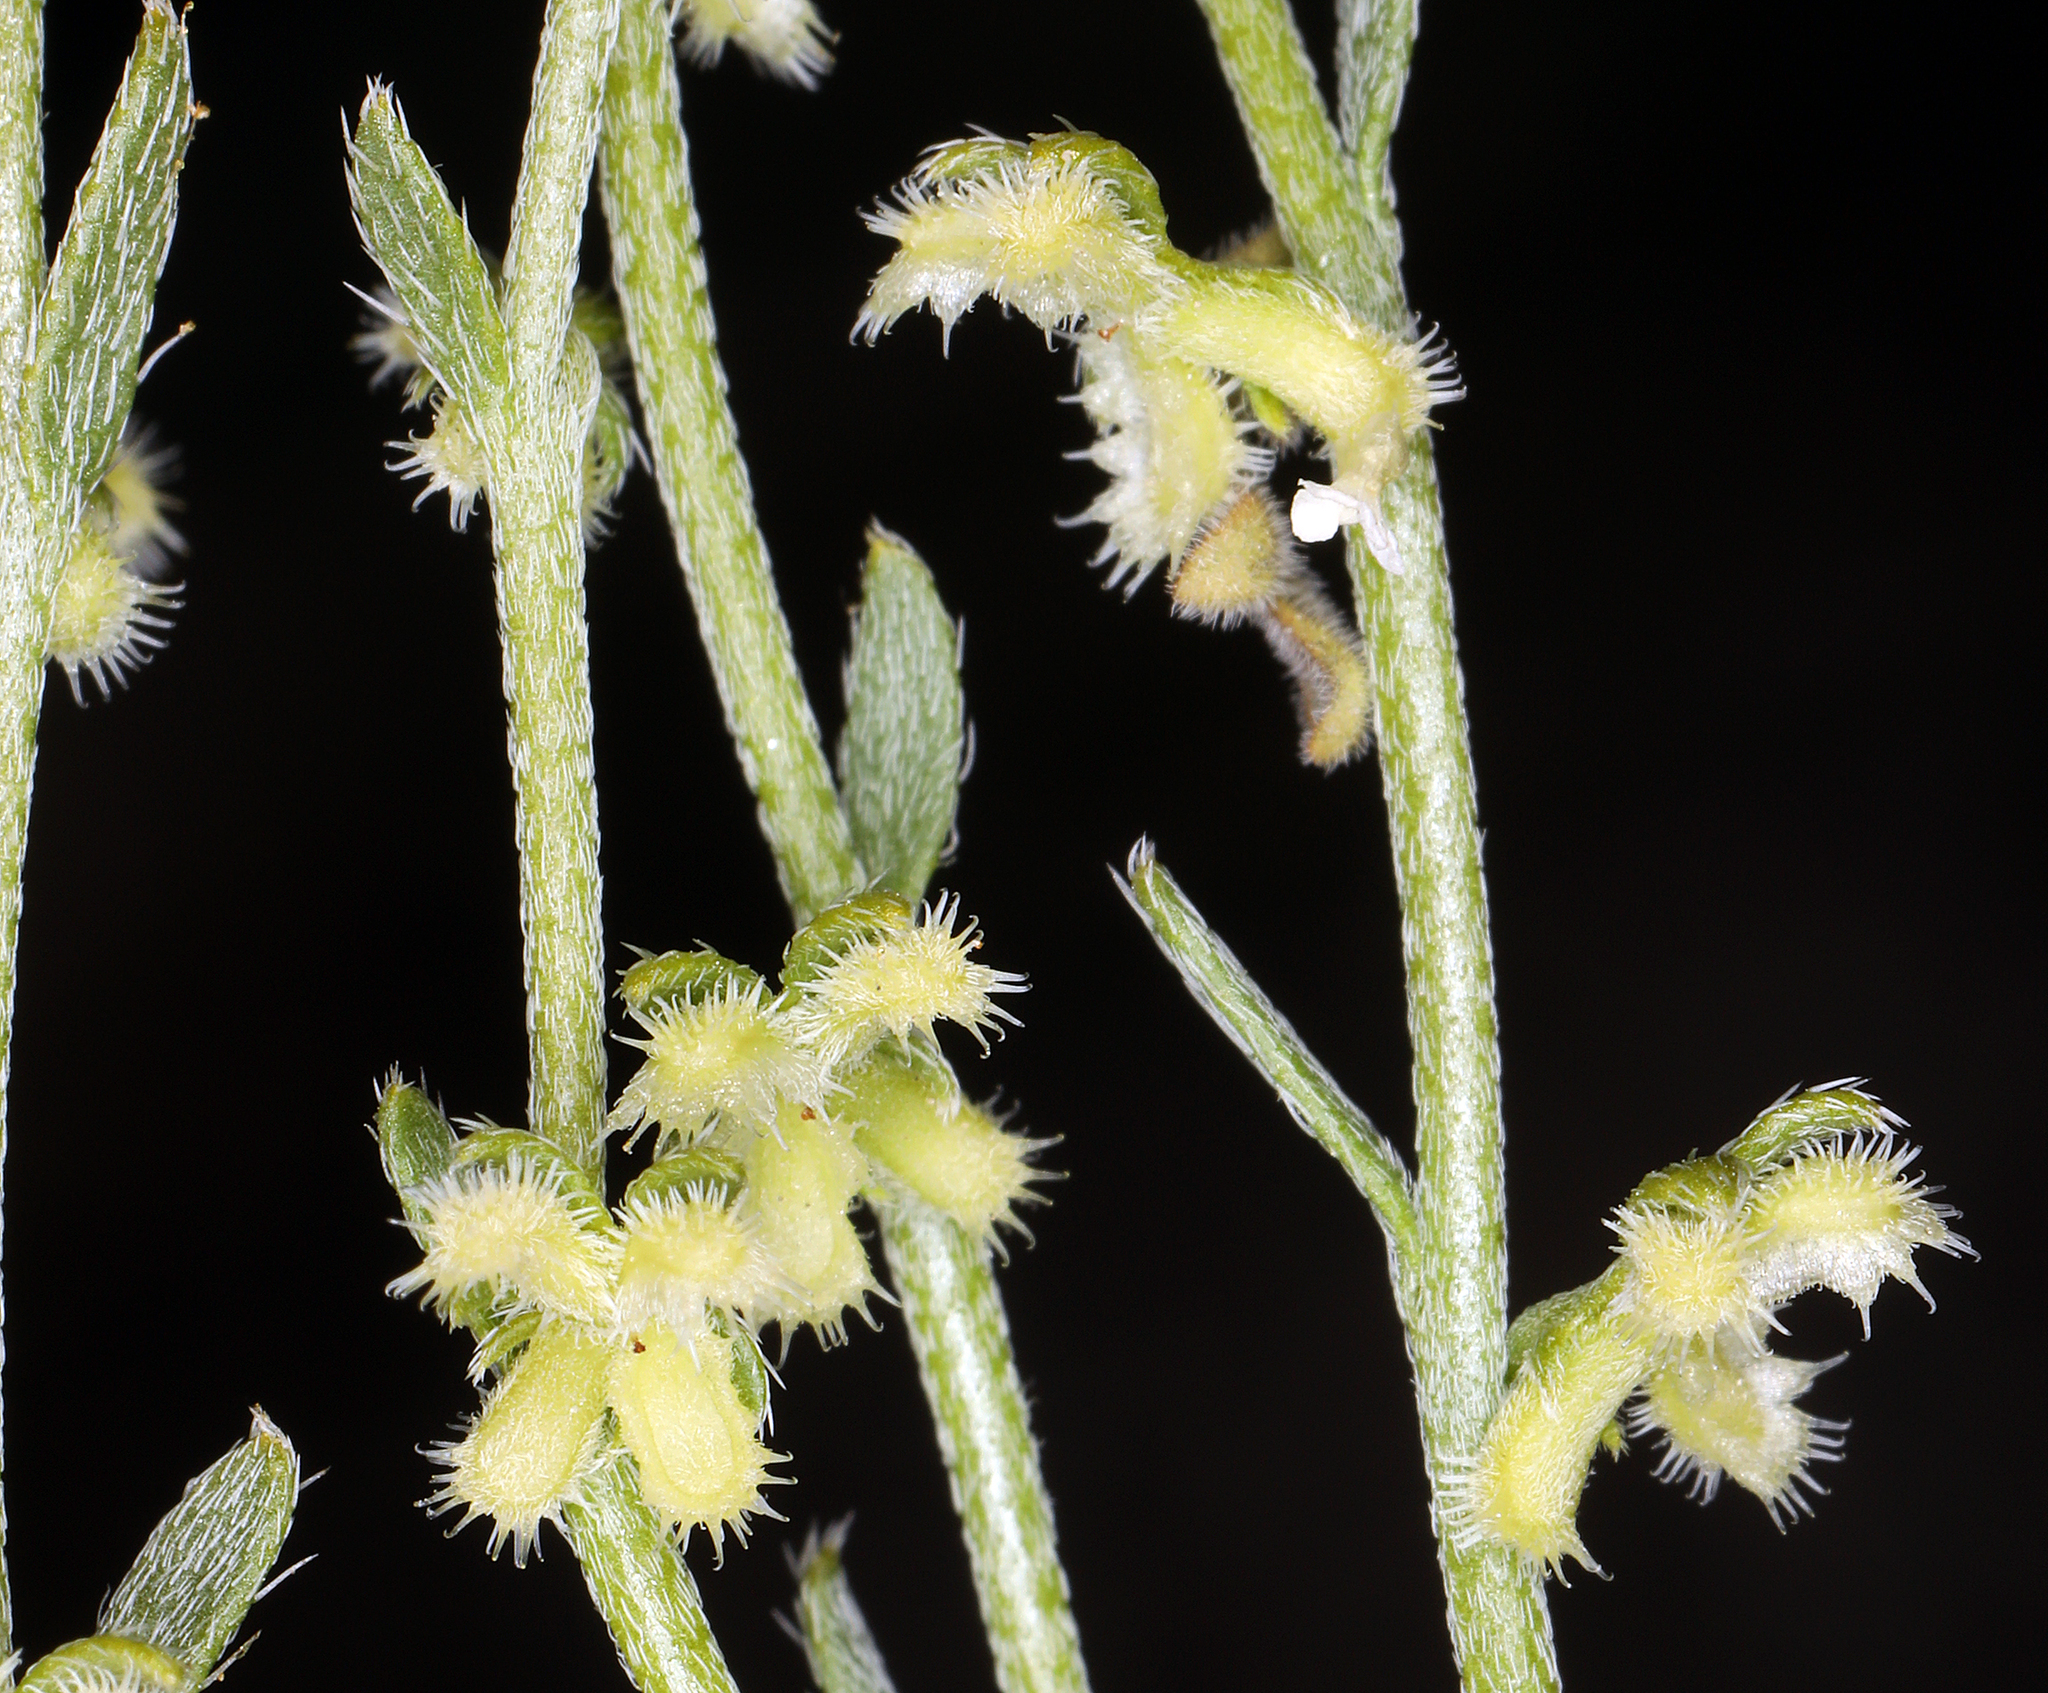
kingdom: Plantae
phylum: Tracheophyta
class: Magnoliopsida
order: Boraginales
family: Boraginaceae
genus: Pectocarya
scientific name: Pectocarya heterocarpa
